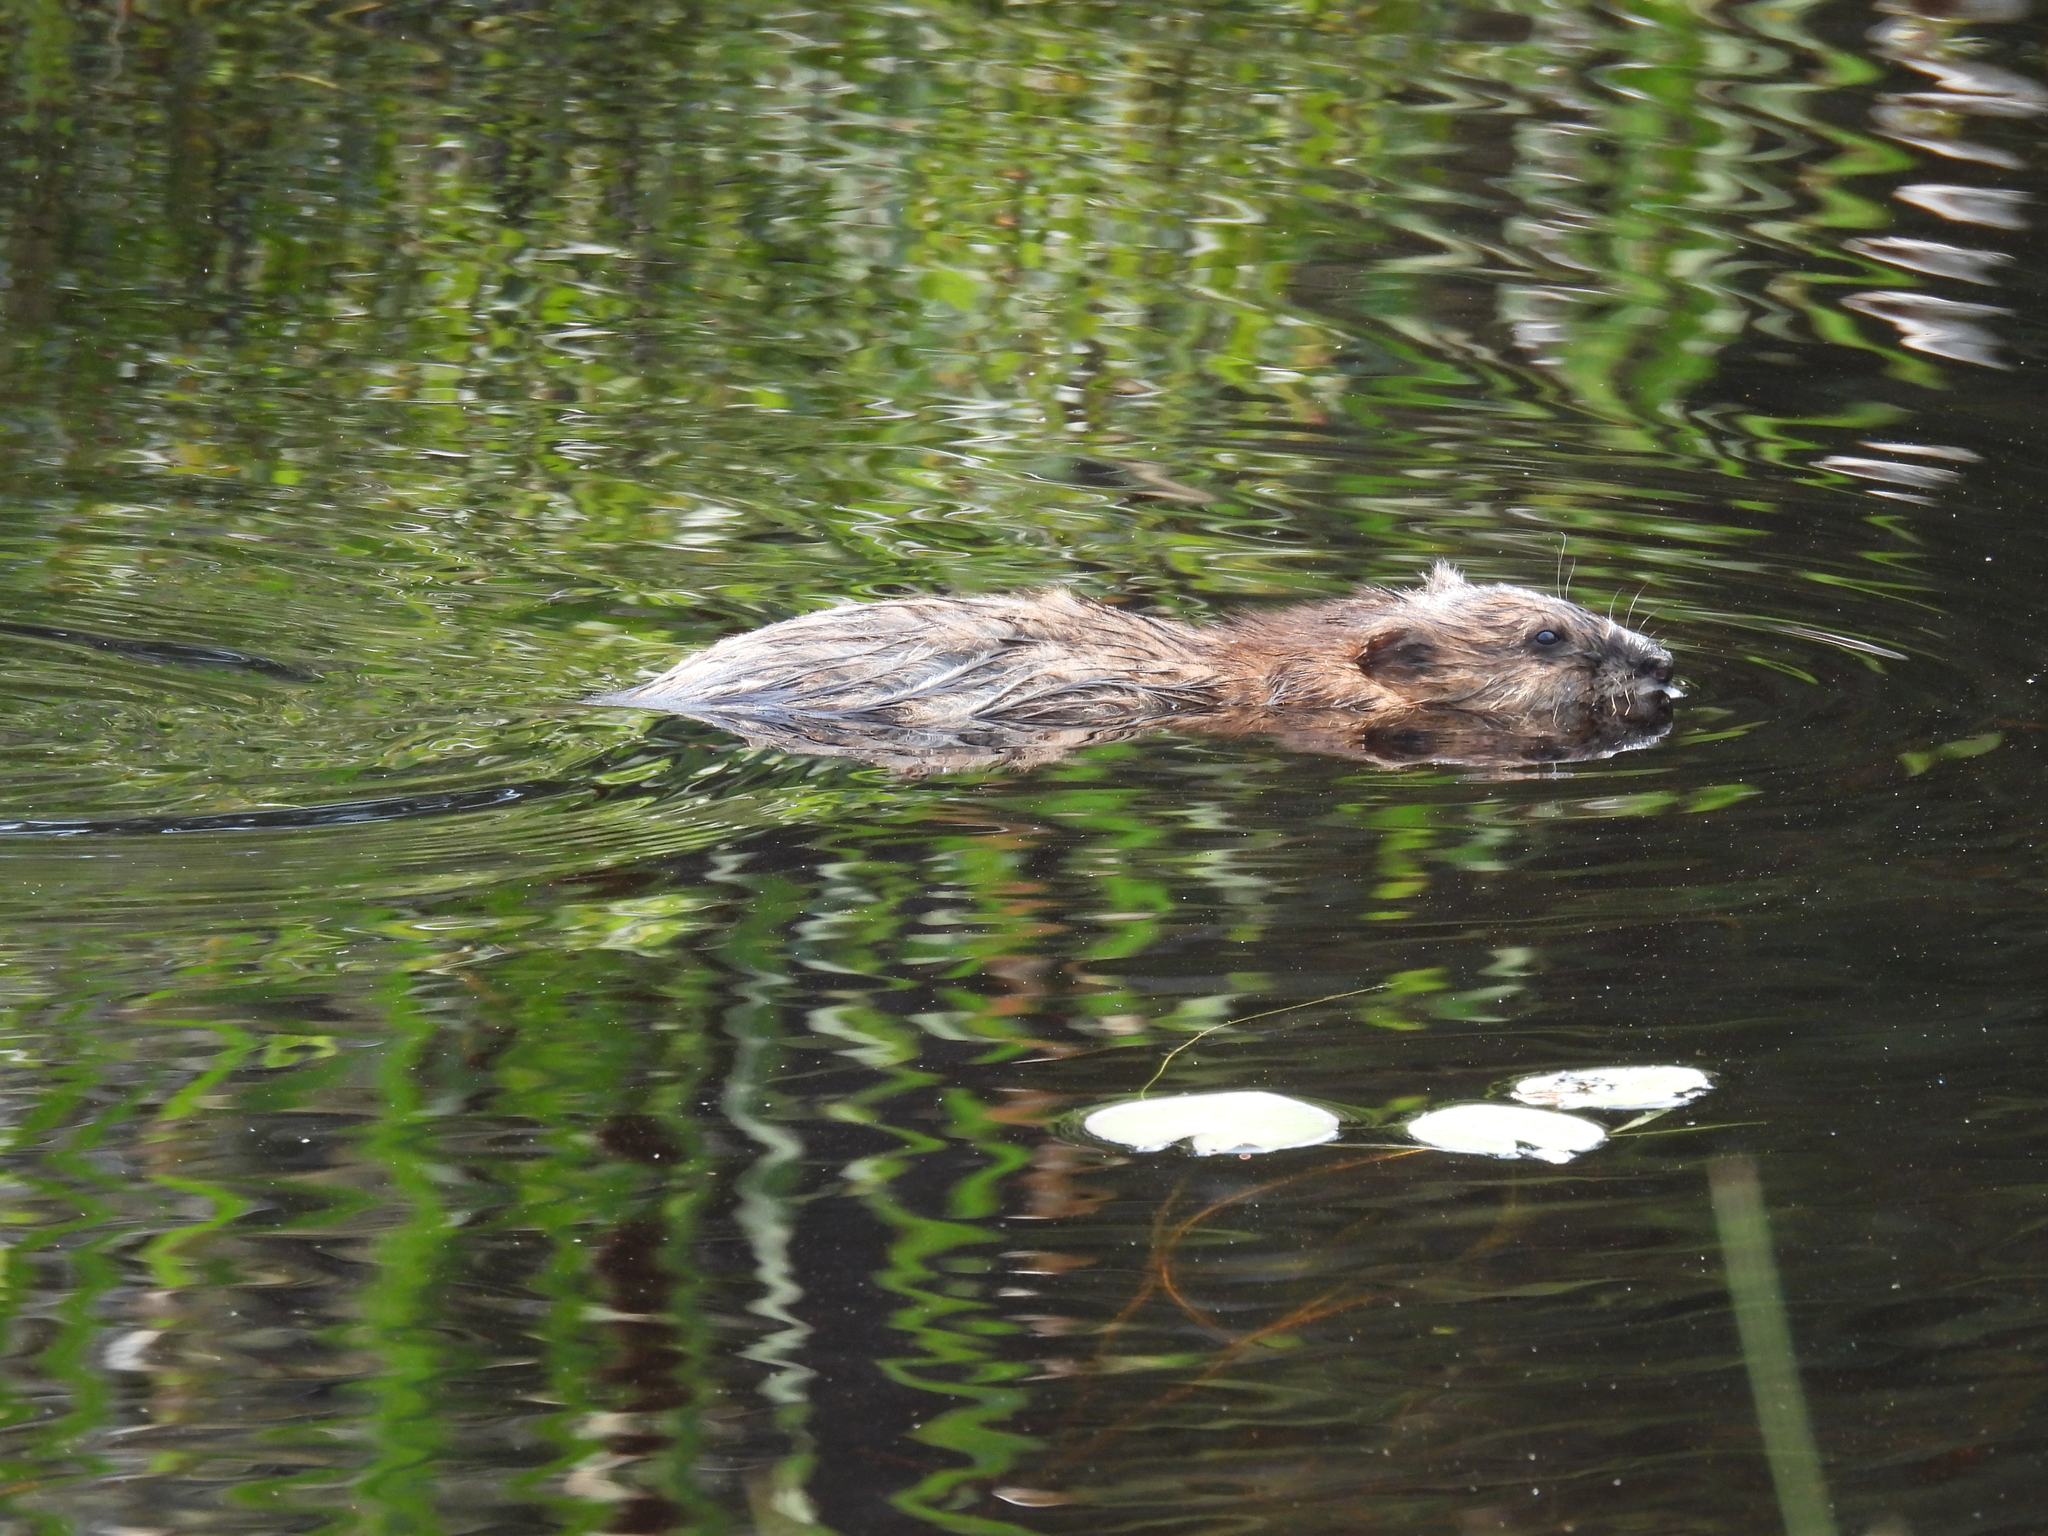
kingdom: Animalia
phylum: Chordata
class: Mammalia
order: Rodentia
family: Cricetidae
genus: Ondatra
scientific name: Ondatra zibethicus
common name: Muskrat
